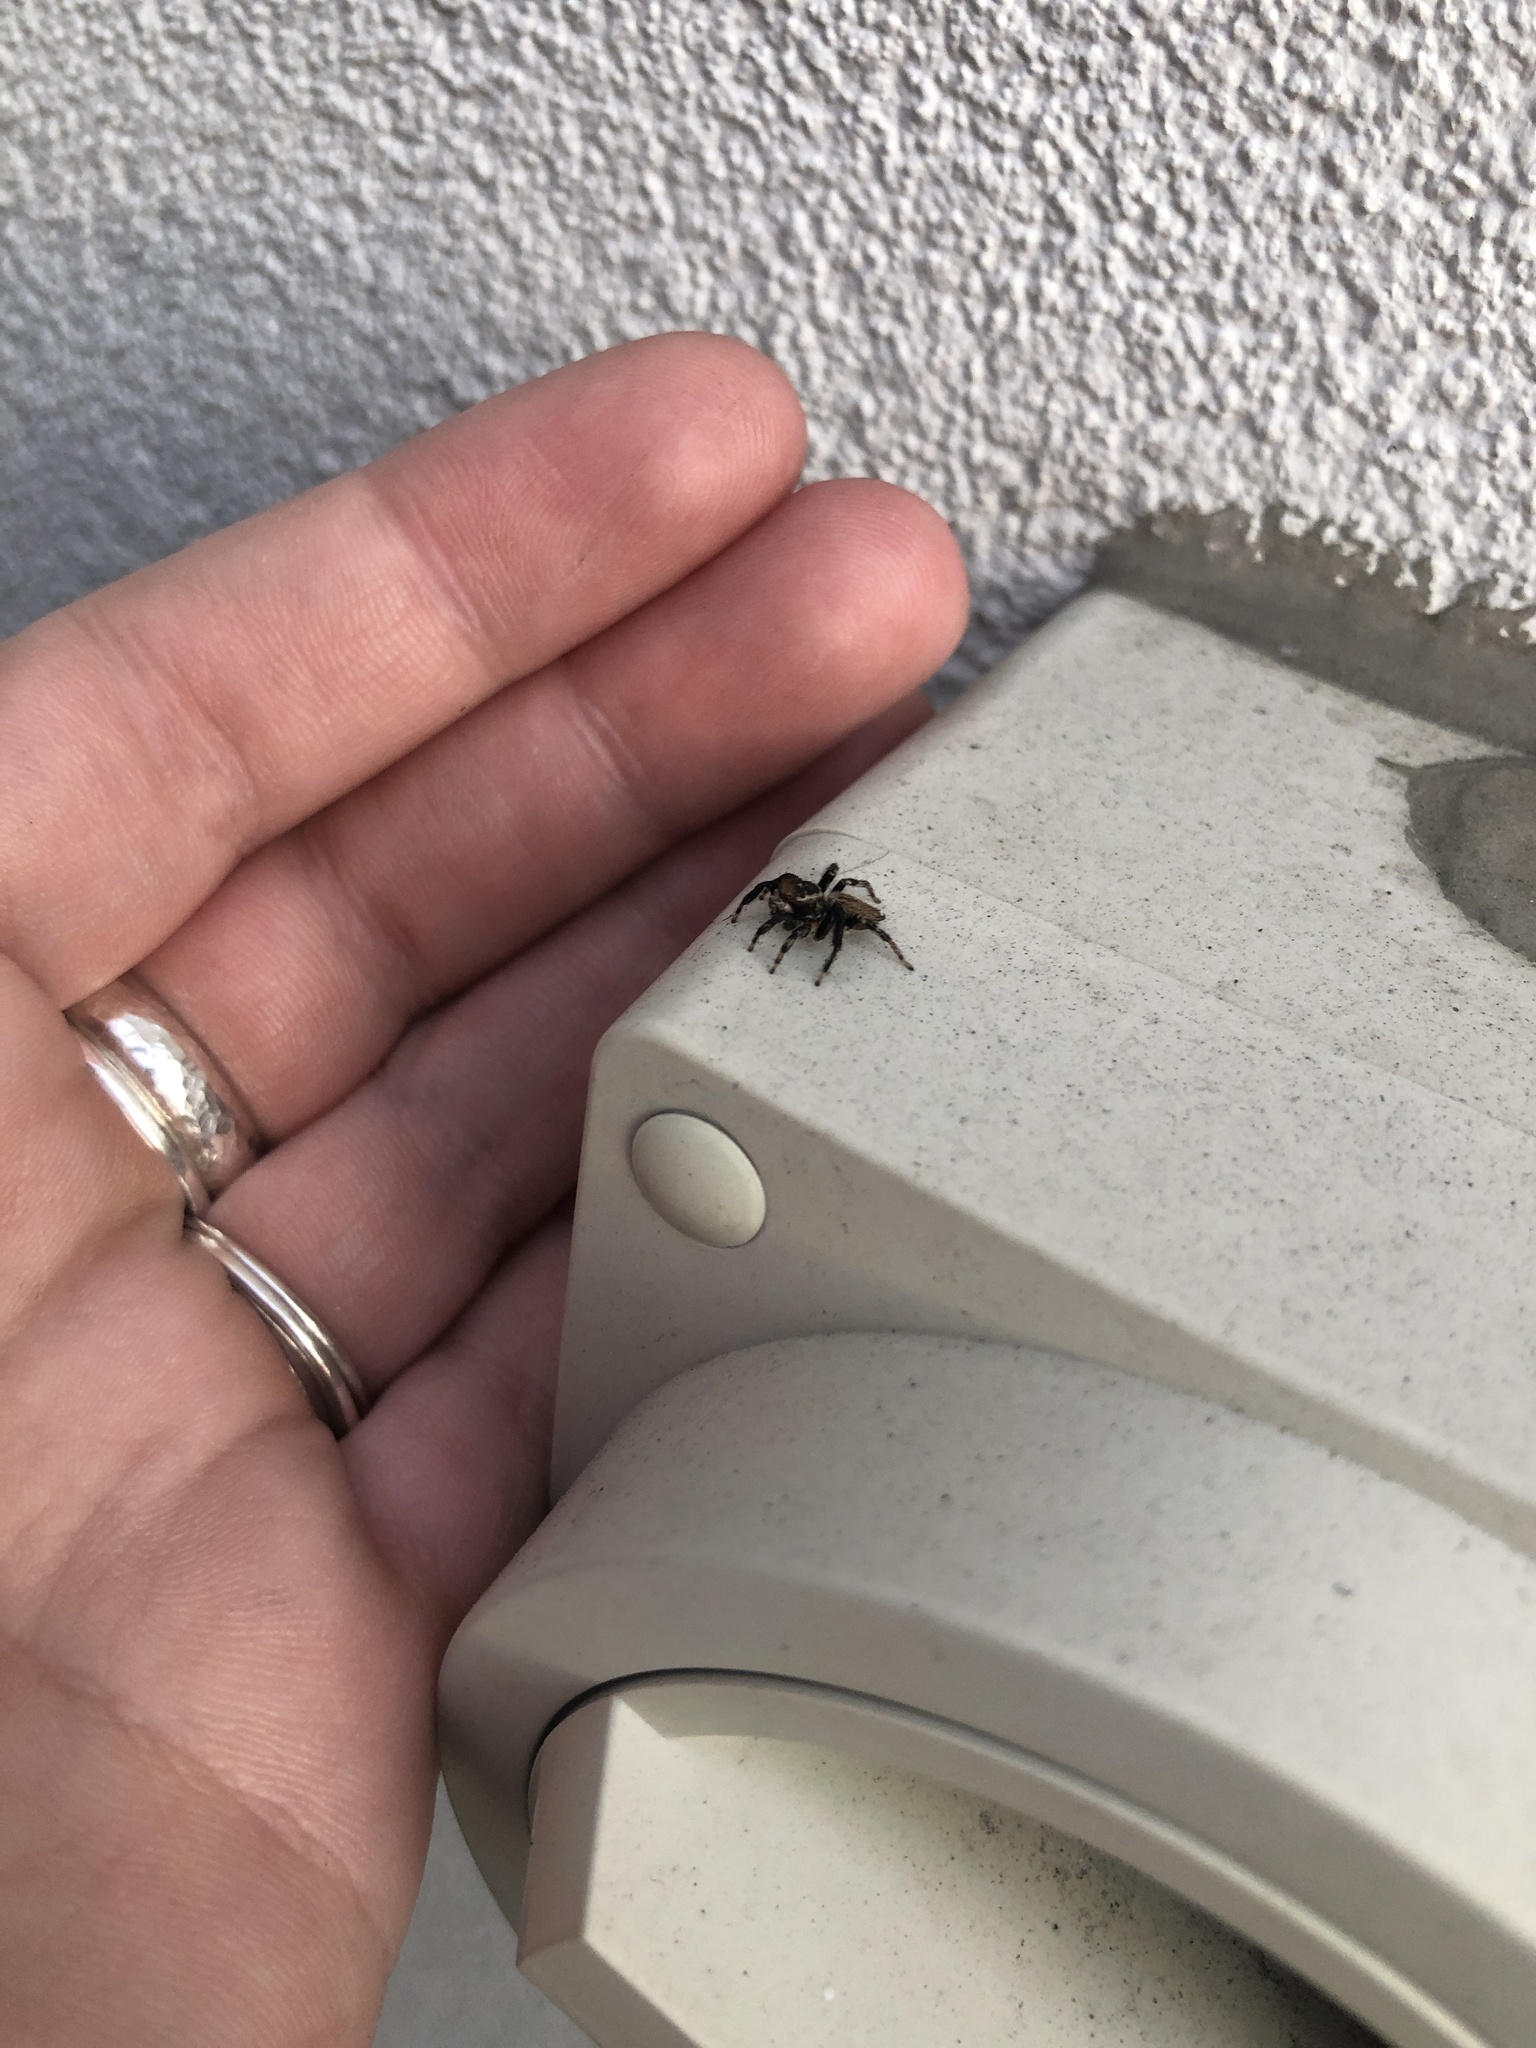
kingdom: Animalia
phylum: Arthropoda
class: Arachnida
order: Araneae
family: Salticidae
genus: Maratus
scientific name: Maratus griseus
